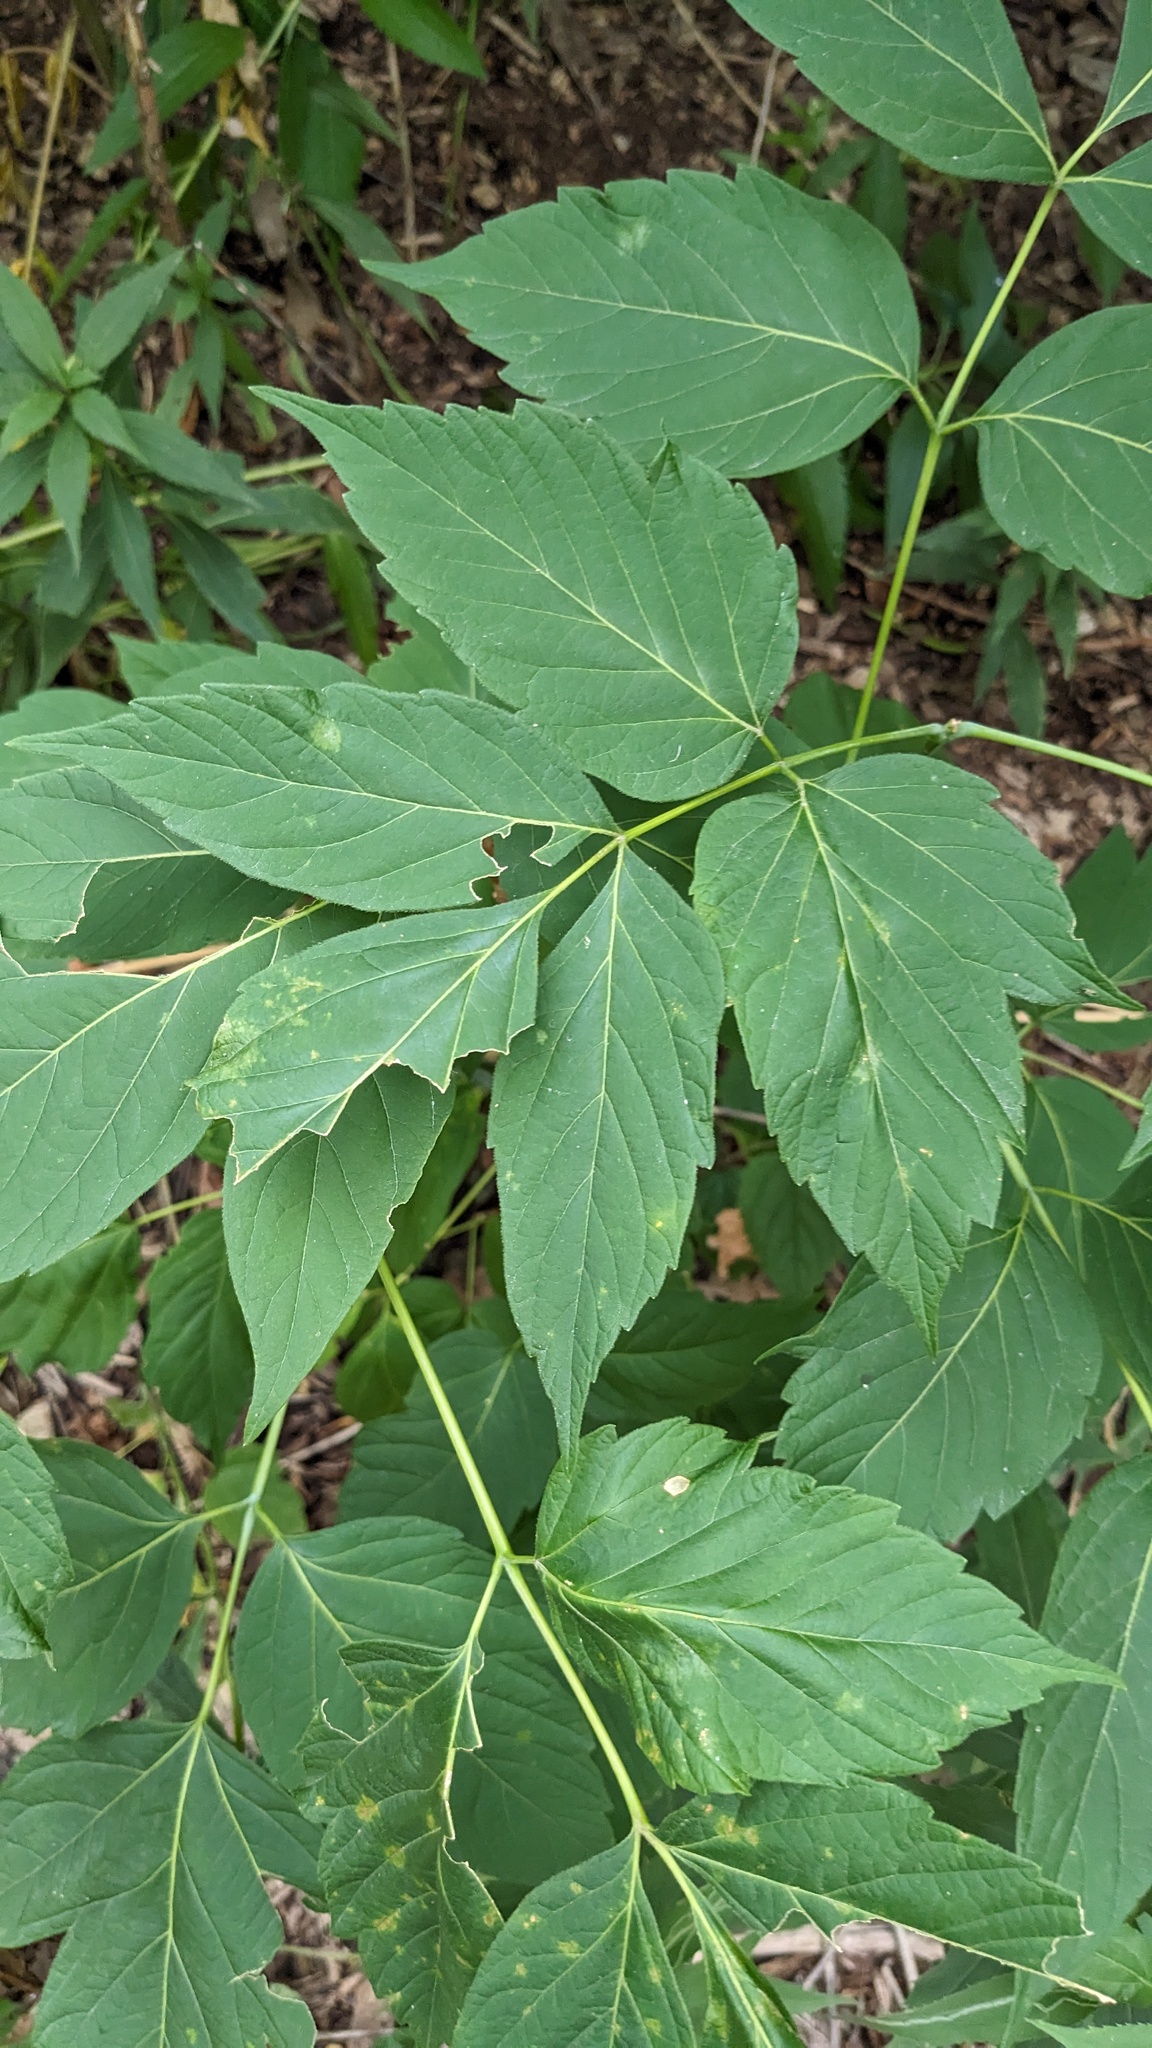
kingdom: Plantae
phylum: Tracheophyta
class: Magnoliopsida
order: Sapindales
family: Sapindaceae
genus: Acer
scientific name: Acer negundo
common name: Ashleaf maple
